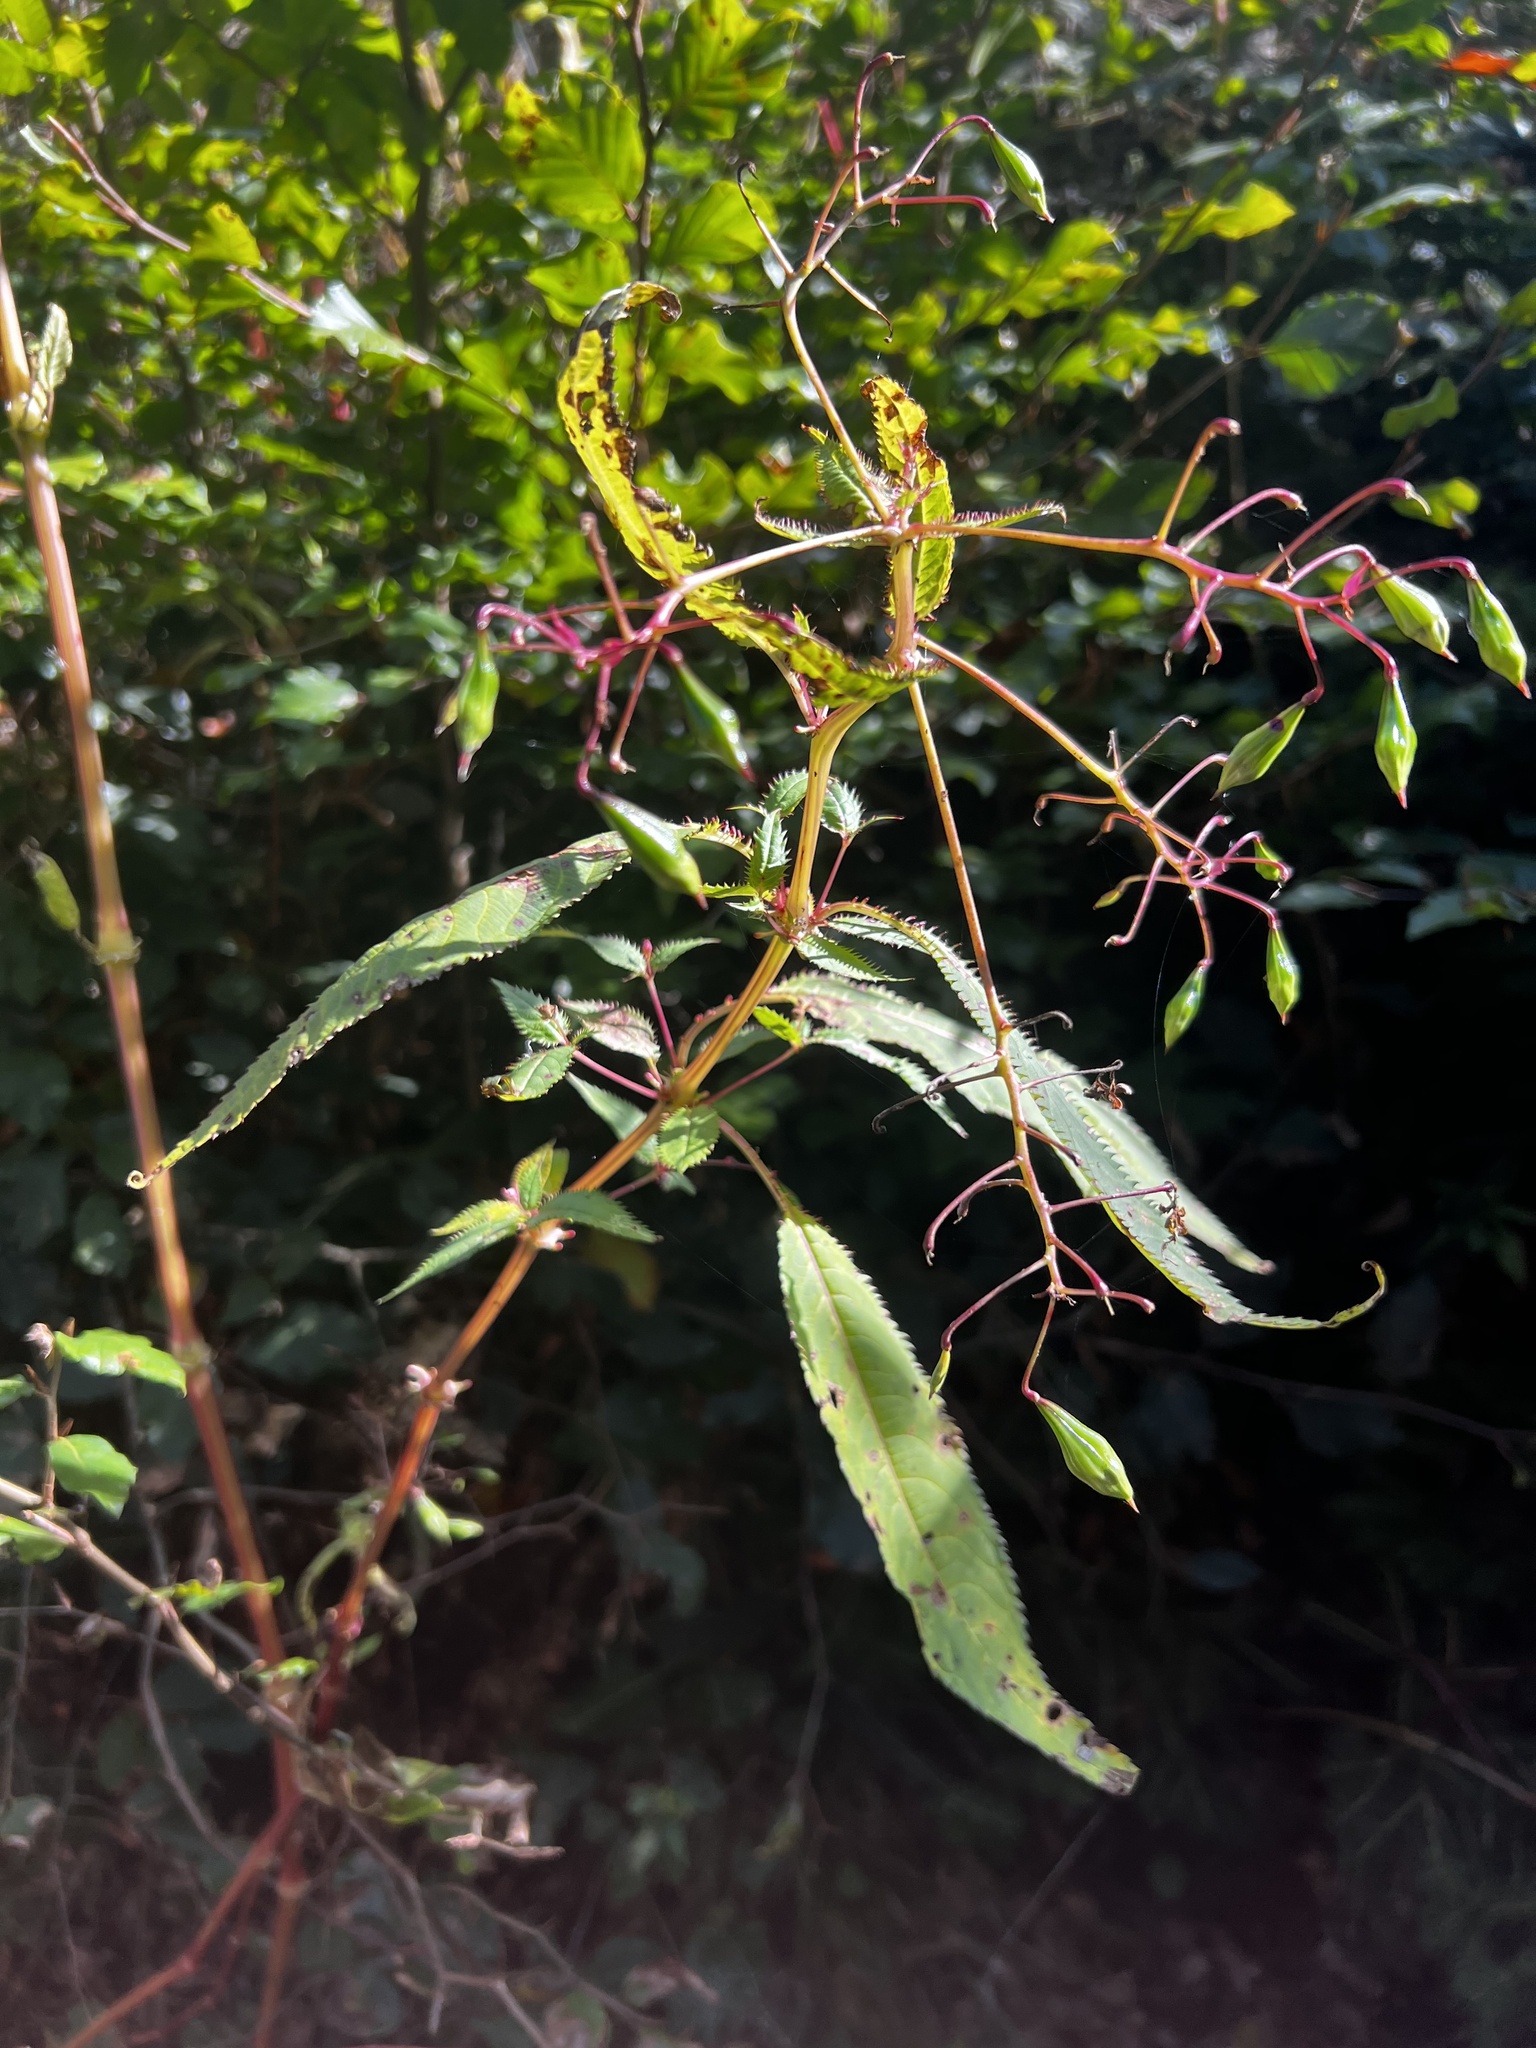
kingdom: Plantae
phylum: Tracheophyta
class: Magnoliopsida
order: Ericales
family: Balsaminaceae
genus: Impatiens
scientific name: Impatiens glandulifera
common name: Himalayan balsam
